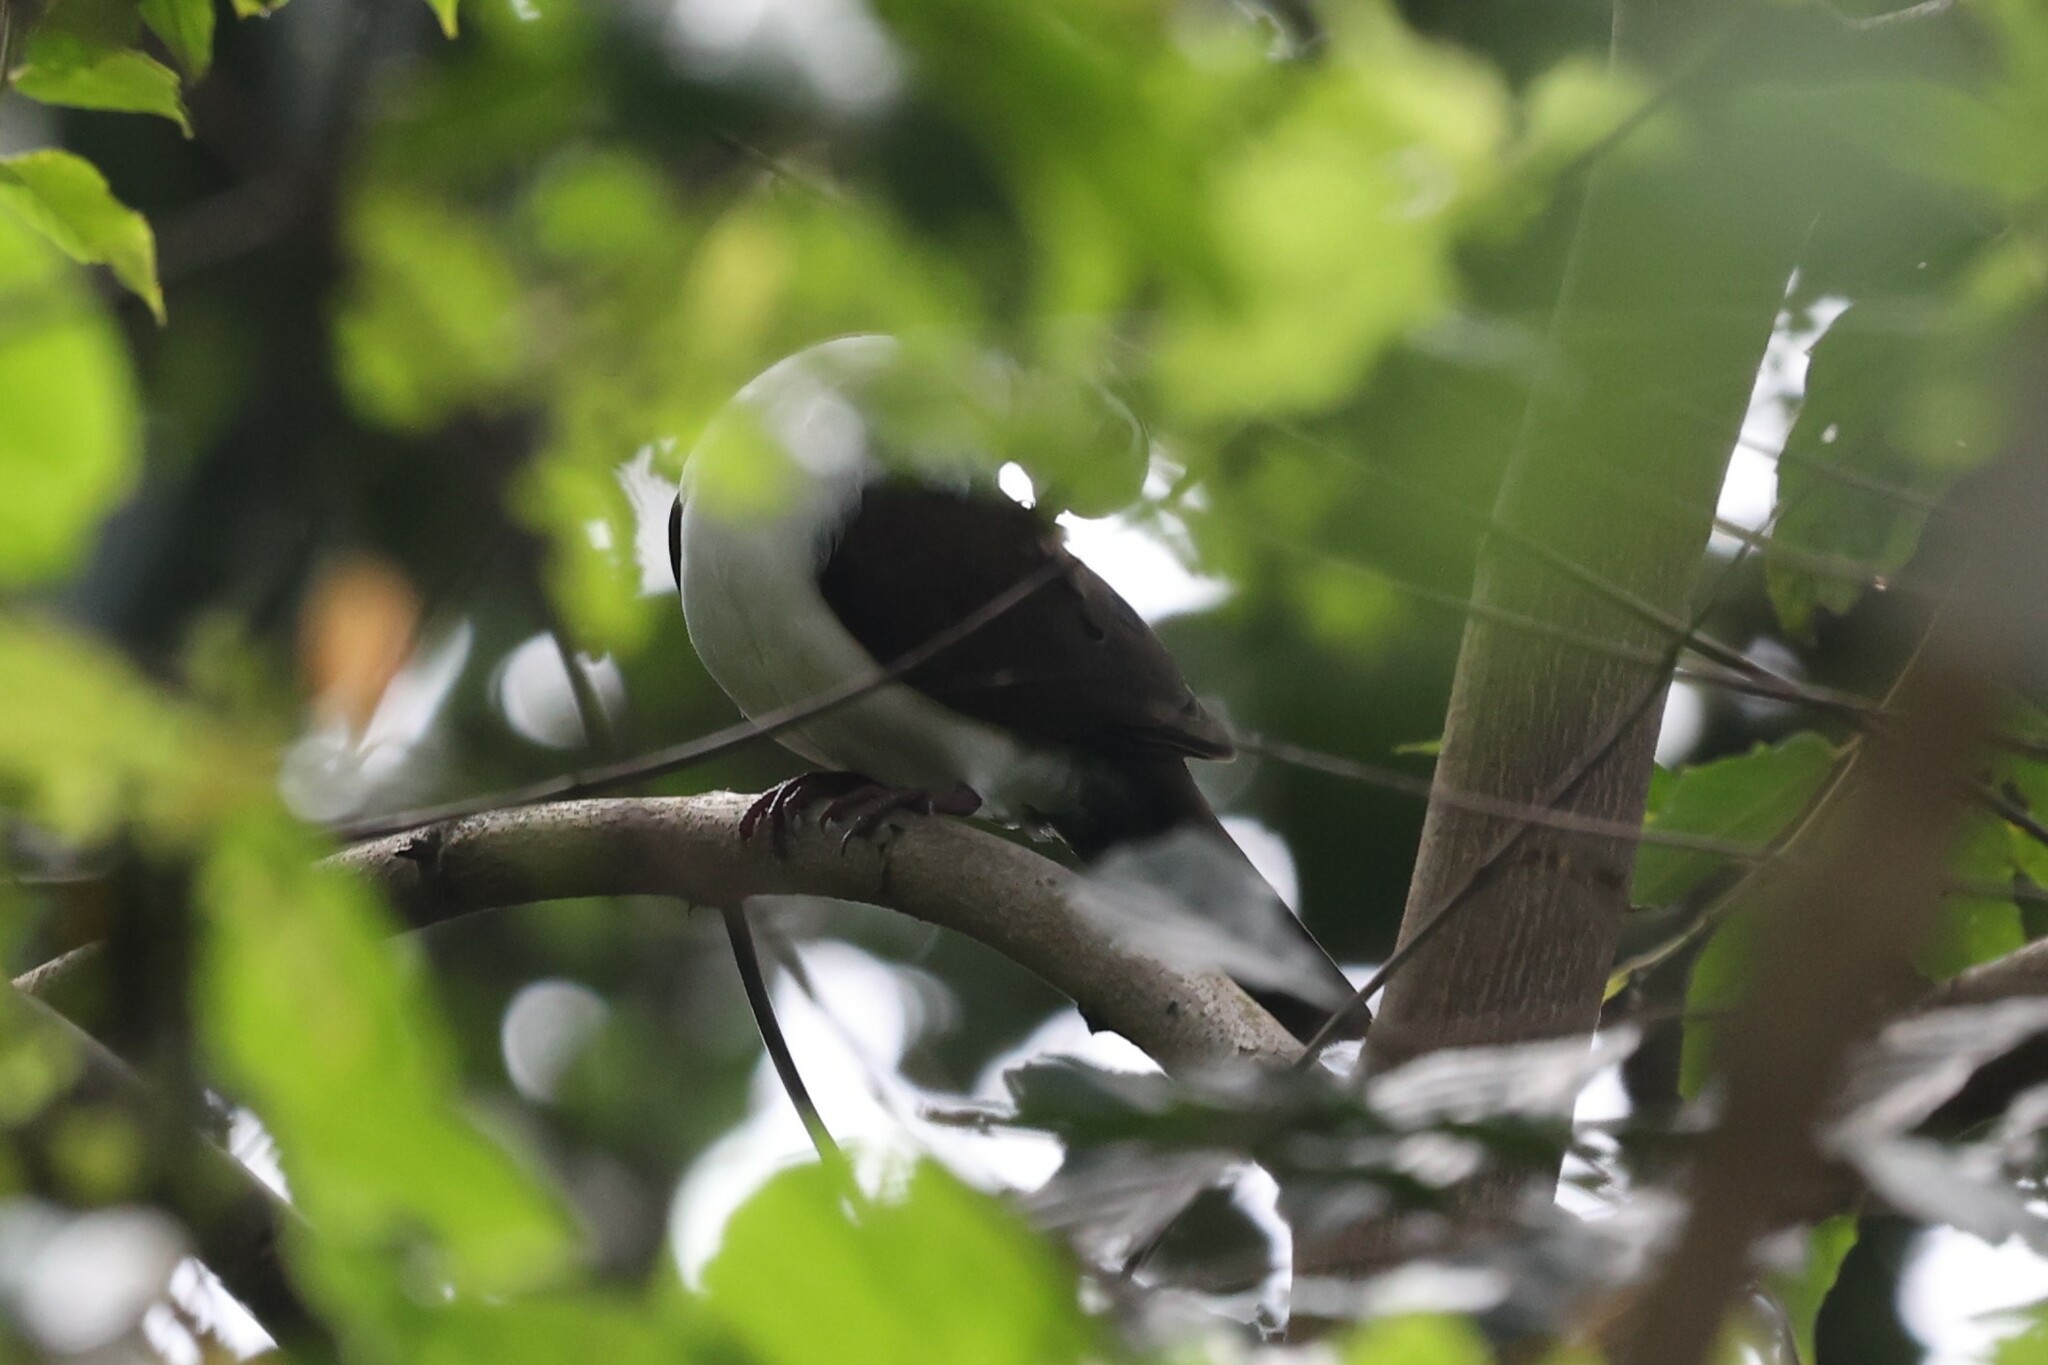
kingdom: Animalia
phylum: Chordata
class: Aves
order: Columbiformes
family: Columbidae
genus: Turtur
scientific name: Turtur tympanistria
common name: Tambourine dove
